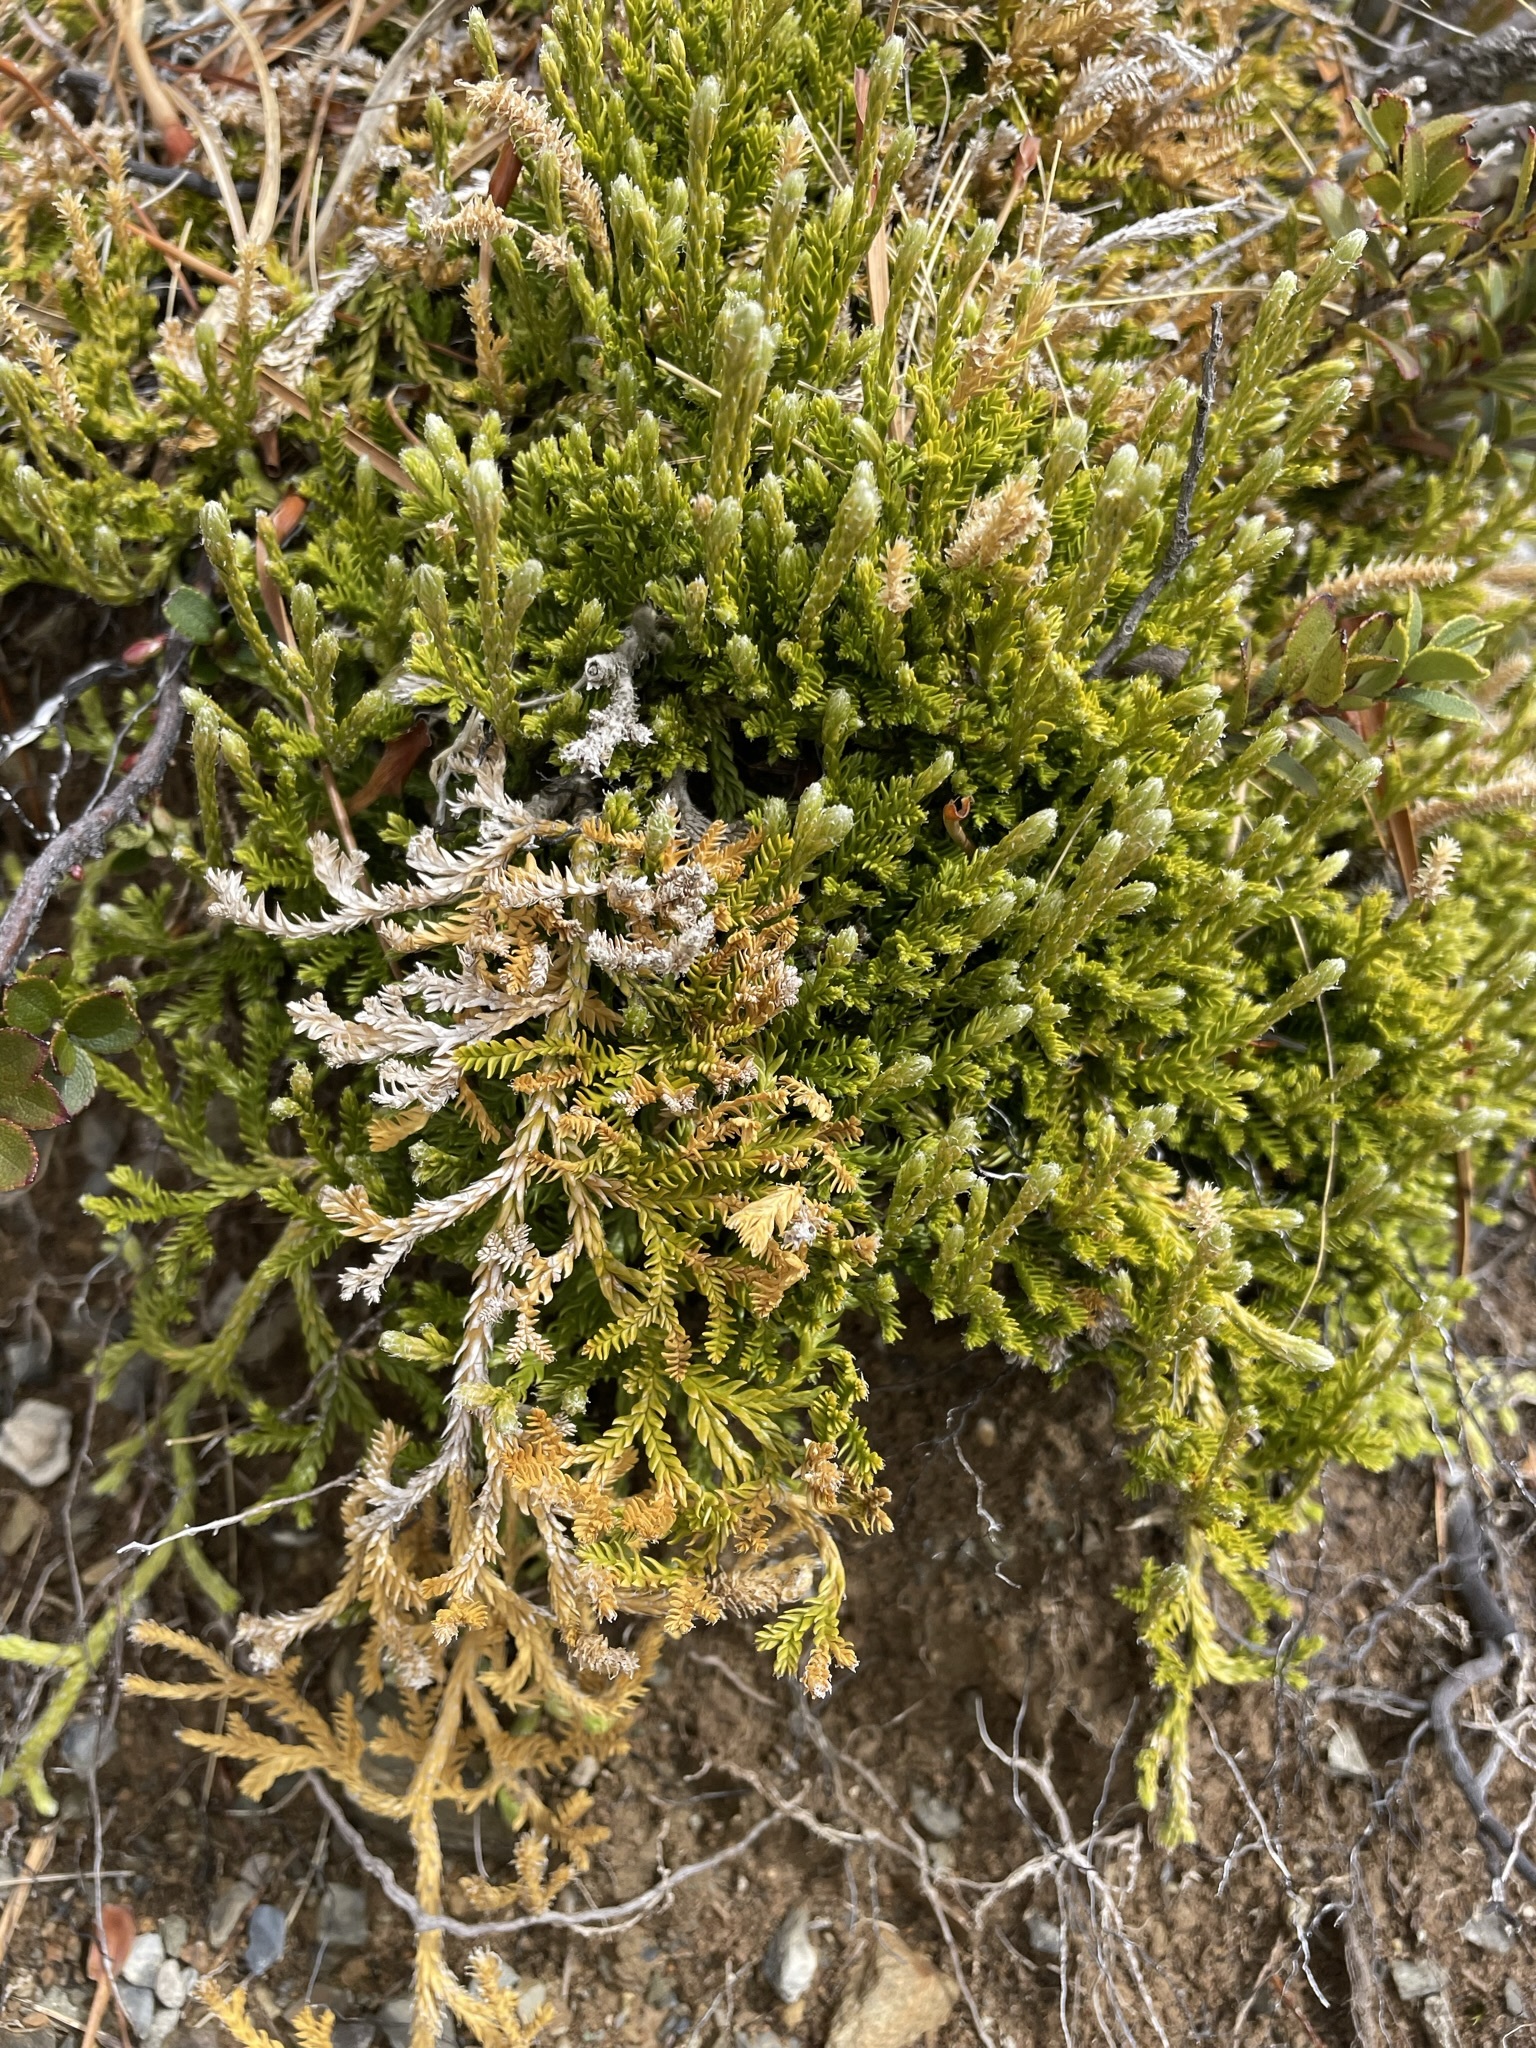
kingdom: Plantae
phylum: Tracheophyta
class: Lycopodiopsida
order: Lycopodiales
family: Lycopodiaceae
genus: Diphasium
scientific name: Diphasium scariosum
